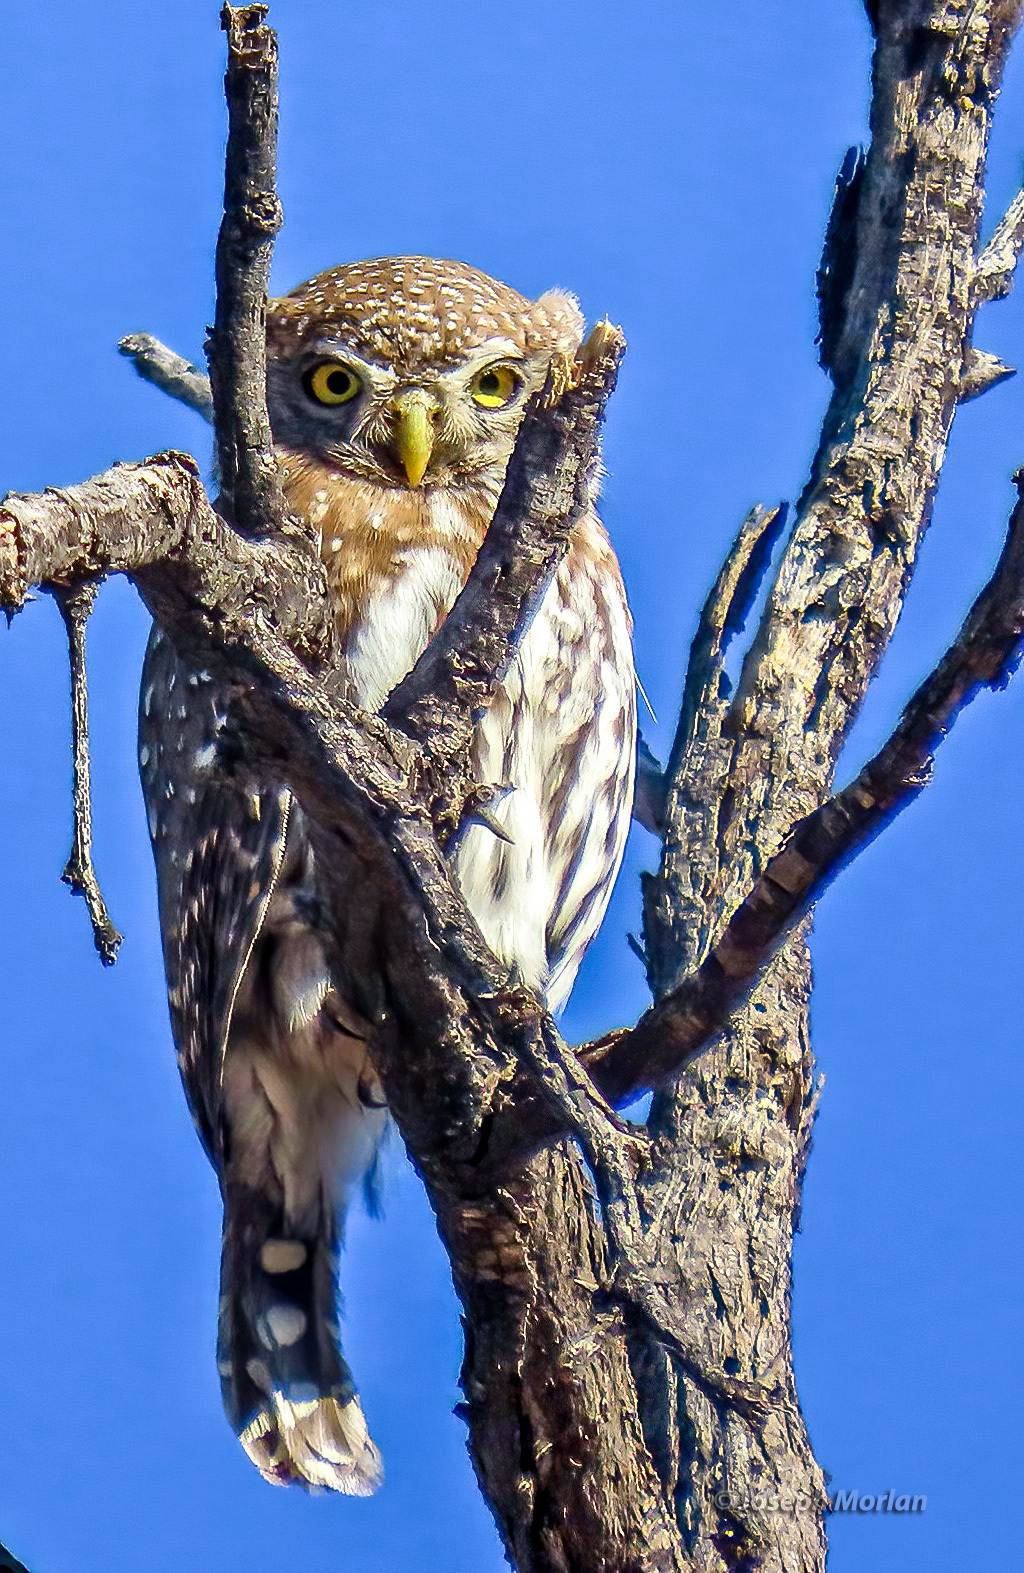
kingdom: Animalia
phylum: Chordata
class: Aves
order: Strigiformes
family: Strigidae
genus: Glaucidium
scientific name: Glaucidium perlatum
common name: Pearl-spotted owlet
